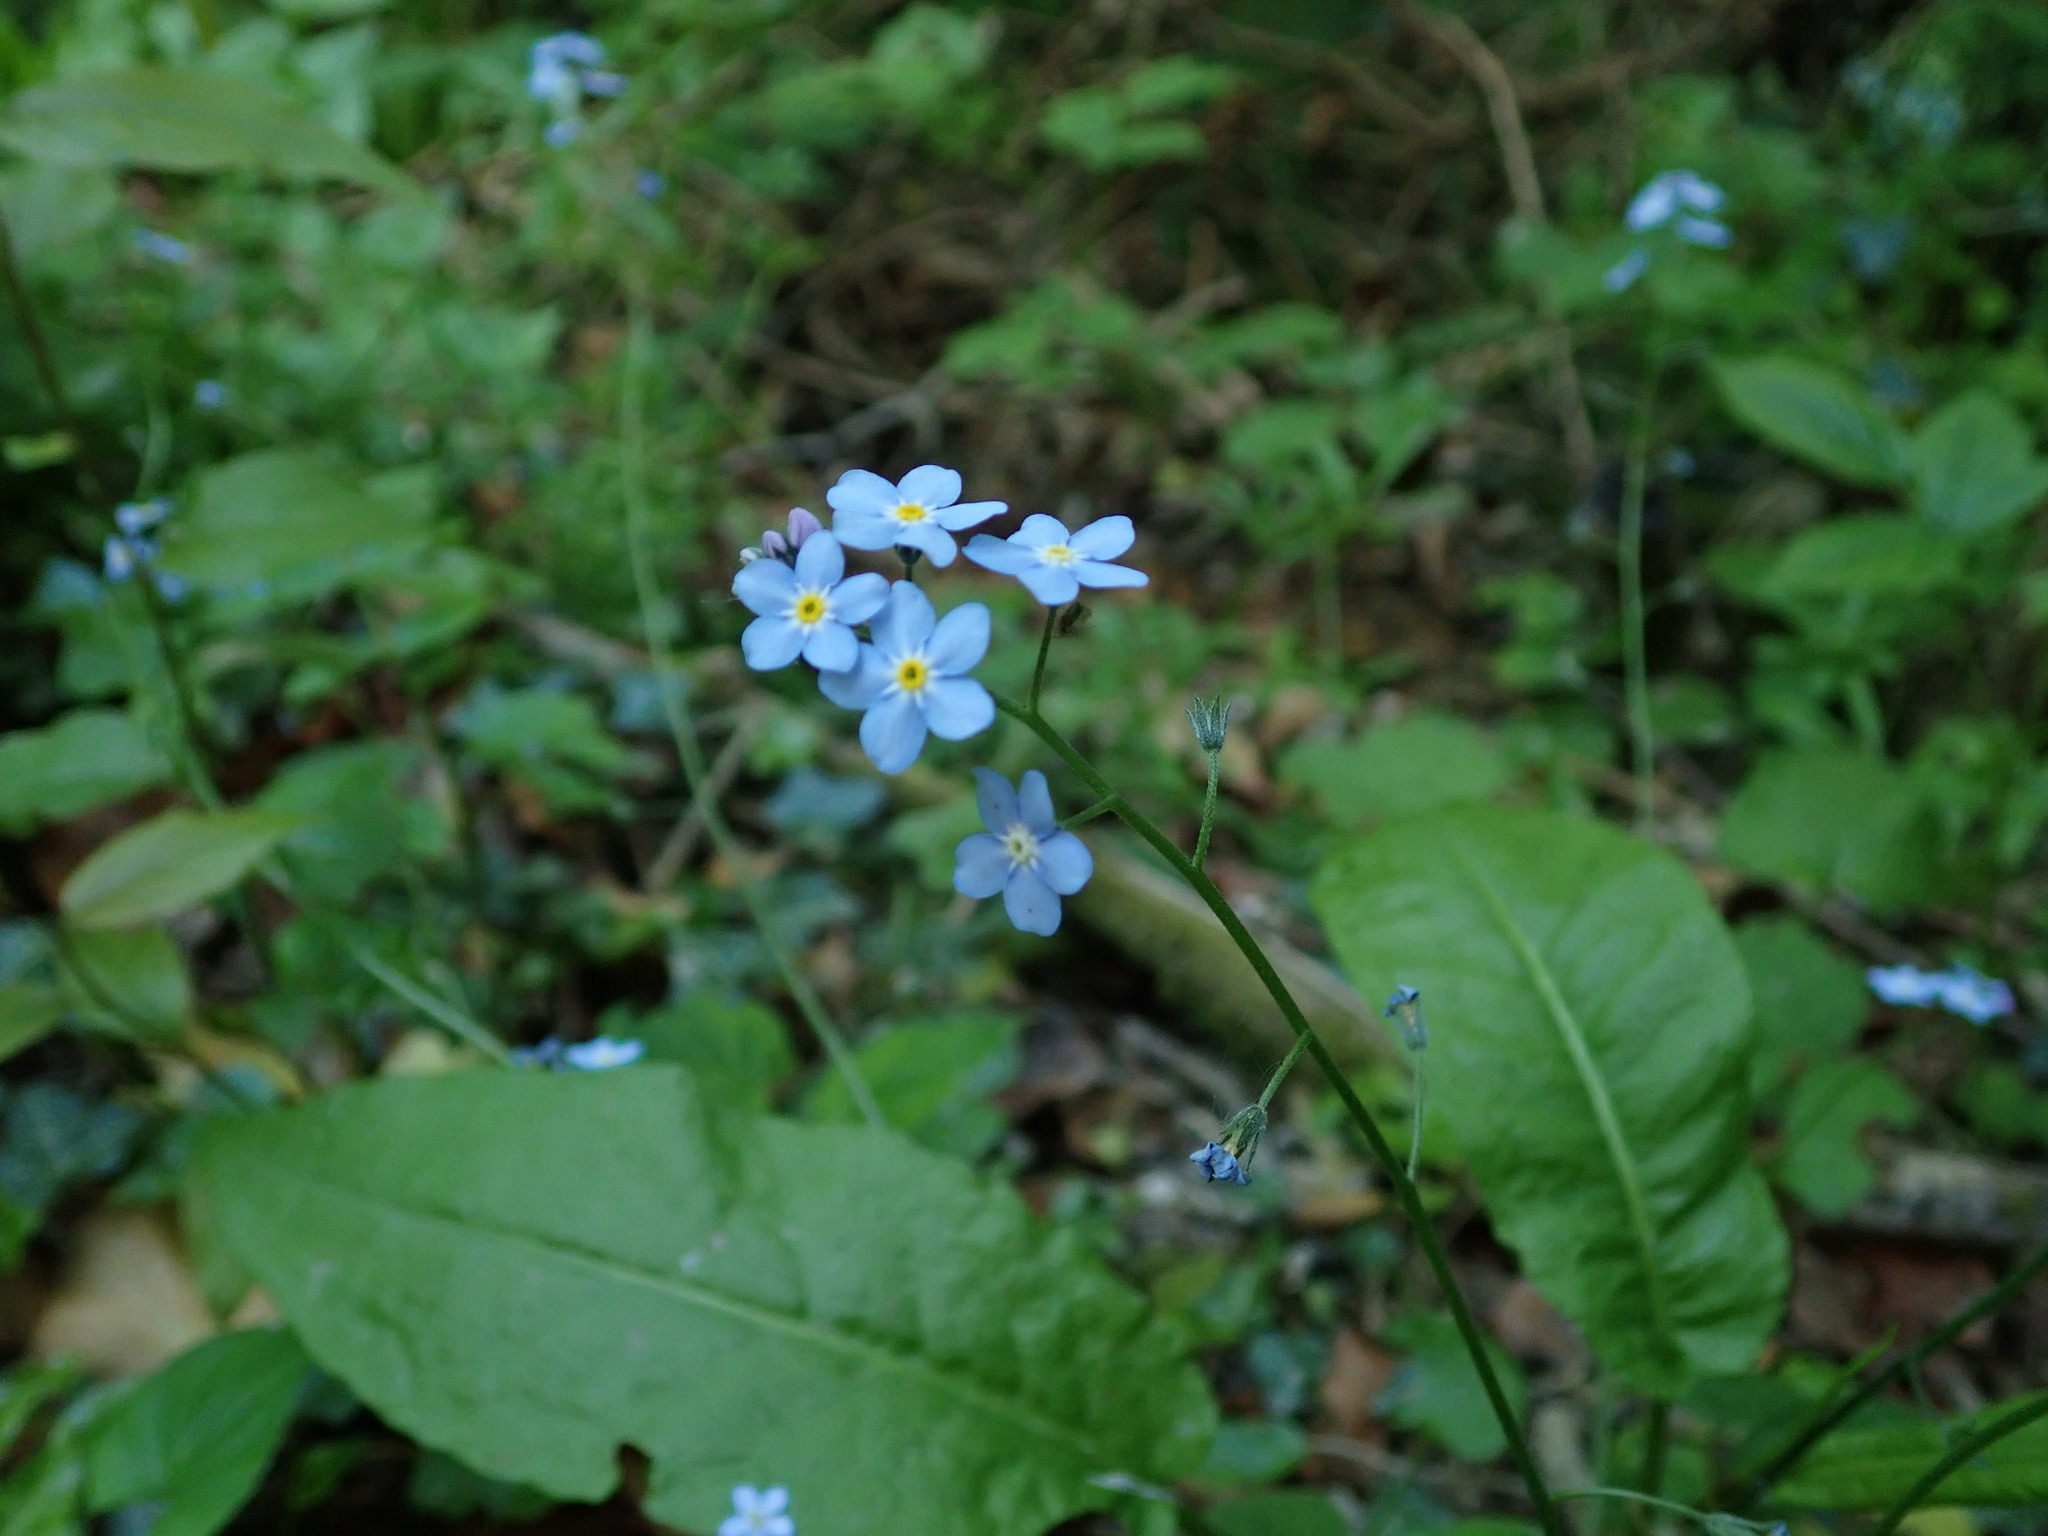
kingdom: Plantae
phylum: Tracheophyta
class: Magnoliopsida
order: Boraginales
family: Boraginaceae
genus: Myosotis
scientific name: Myosotis sylvatica
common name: Wood forget-me-not
